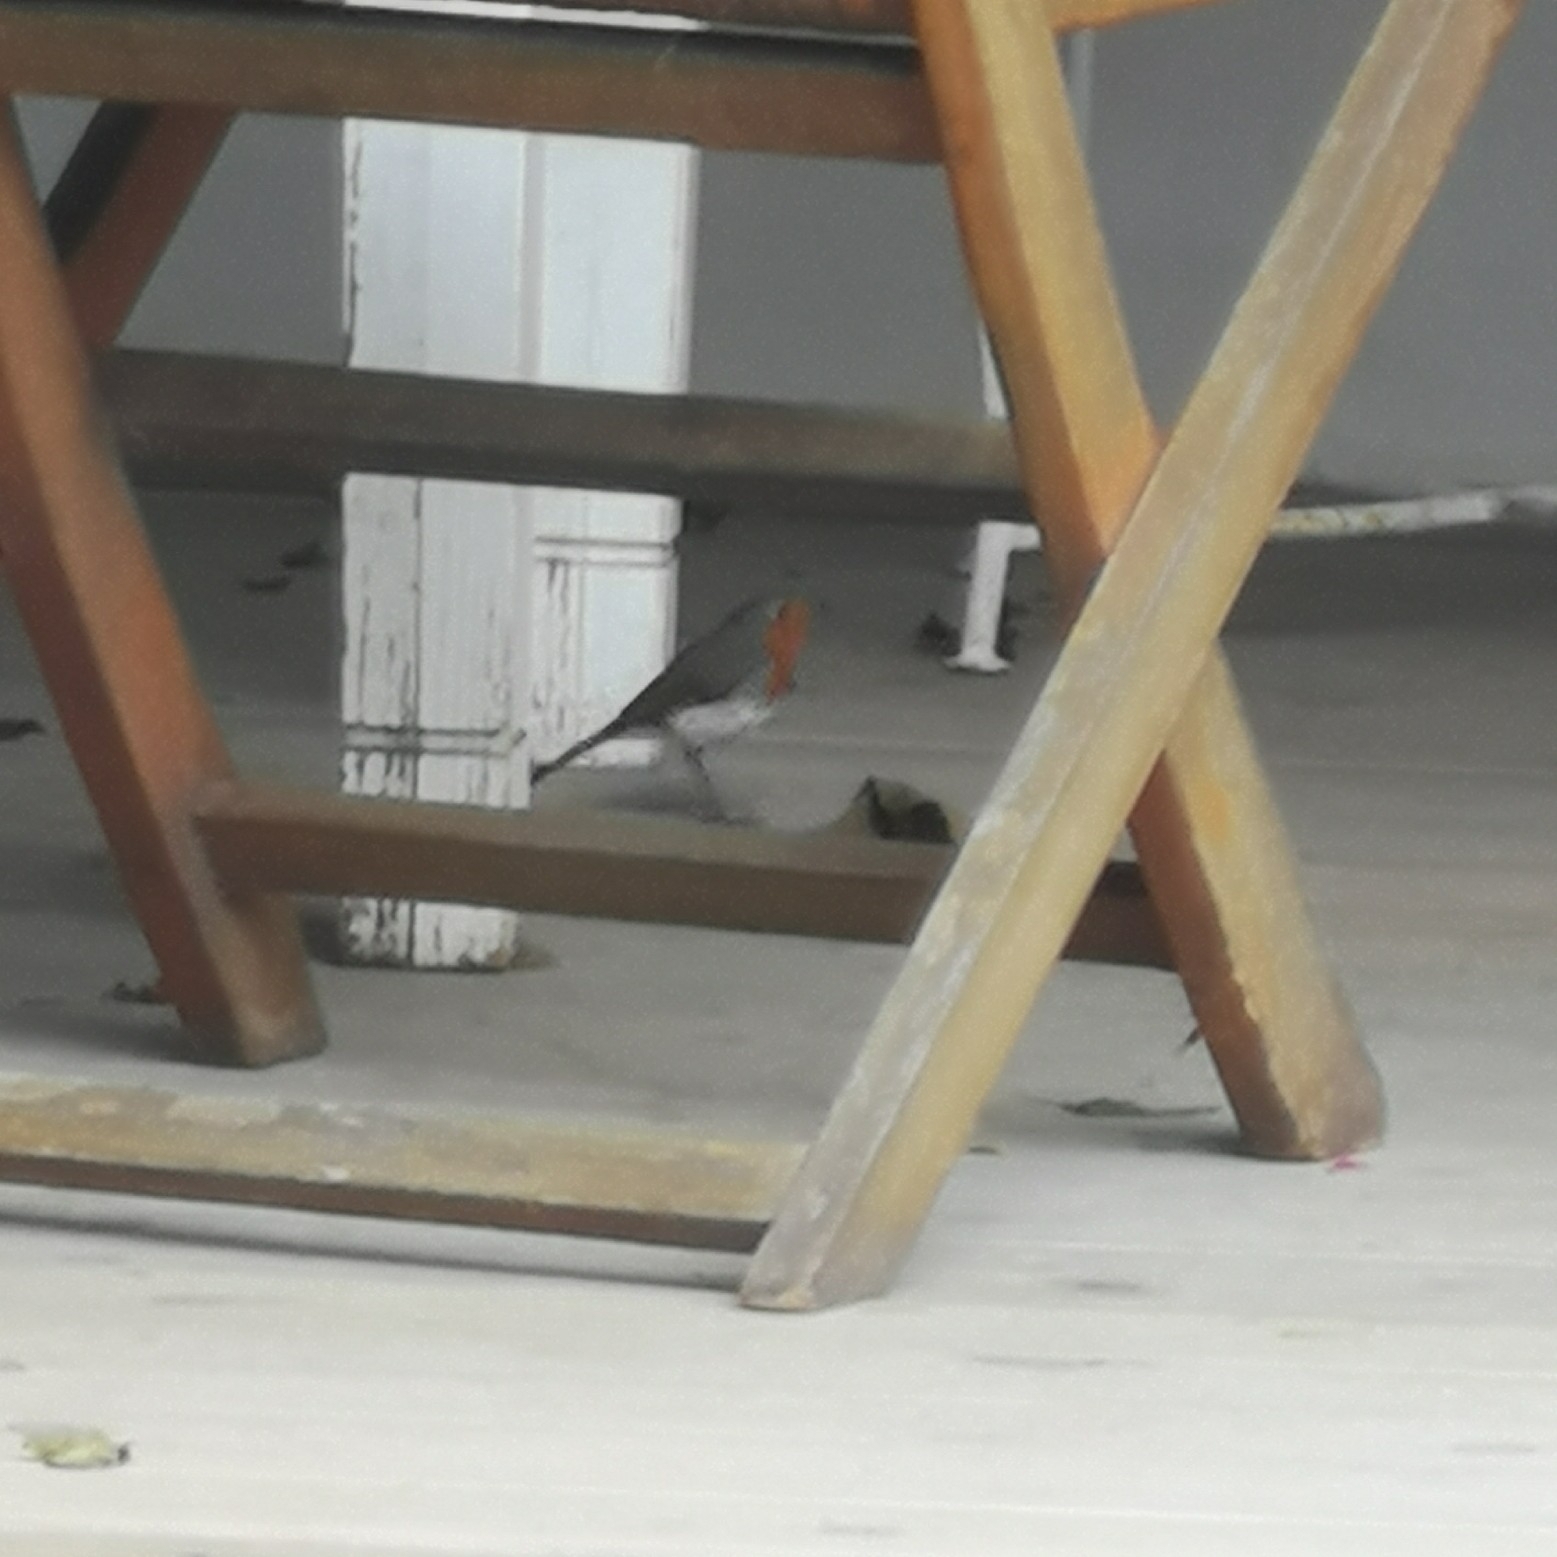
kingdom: Animalia
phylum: Chordata
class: Aves
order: Passeriformes
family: Muscicapidae
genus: Erithacus
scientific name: Erithacus rubecula
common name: European robin
